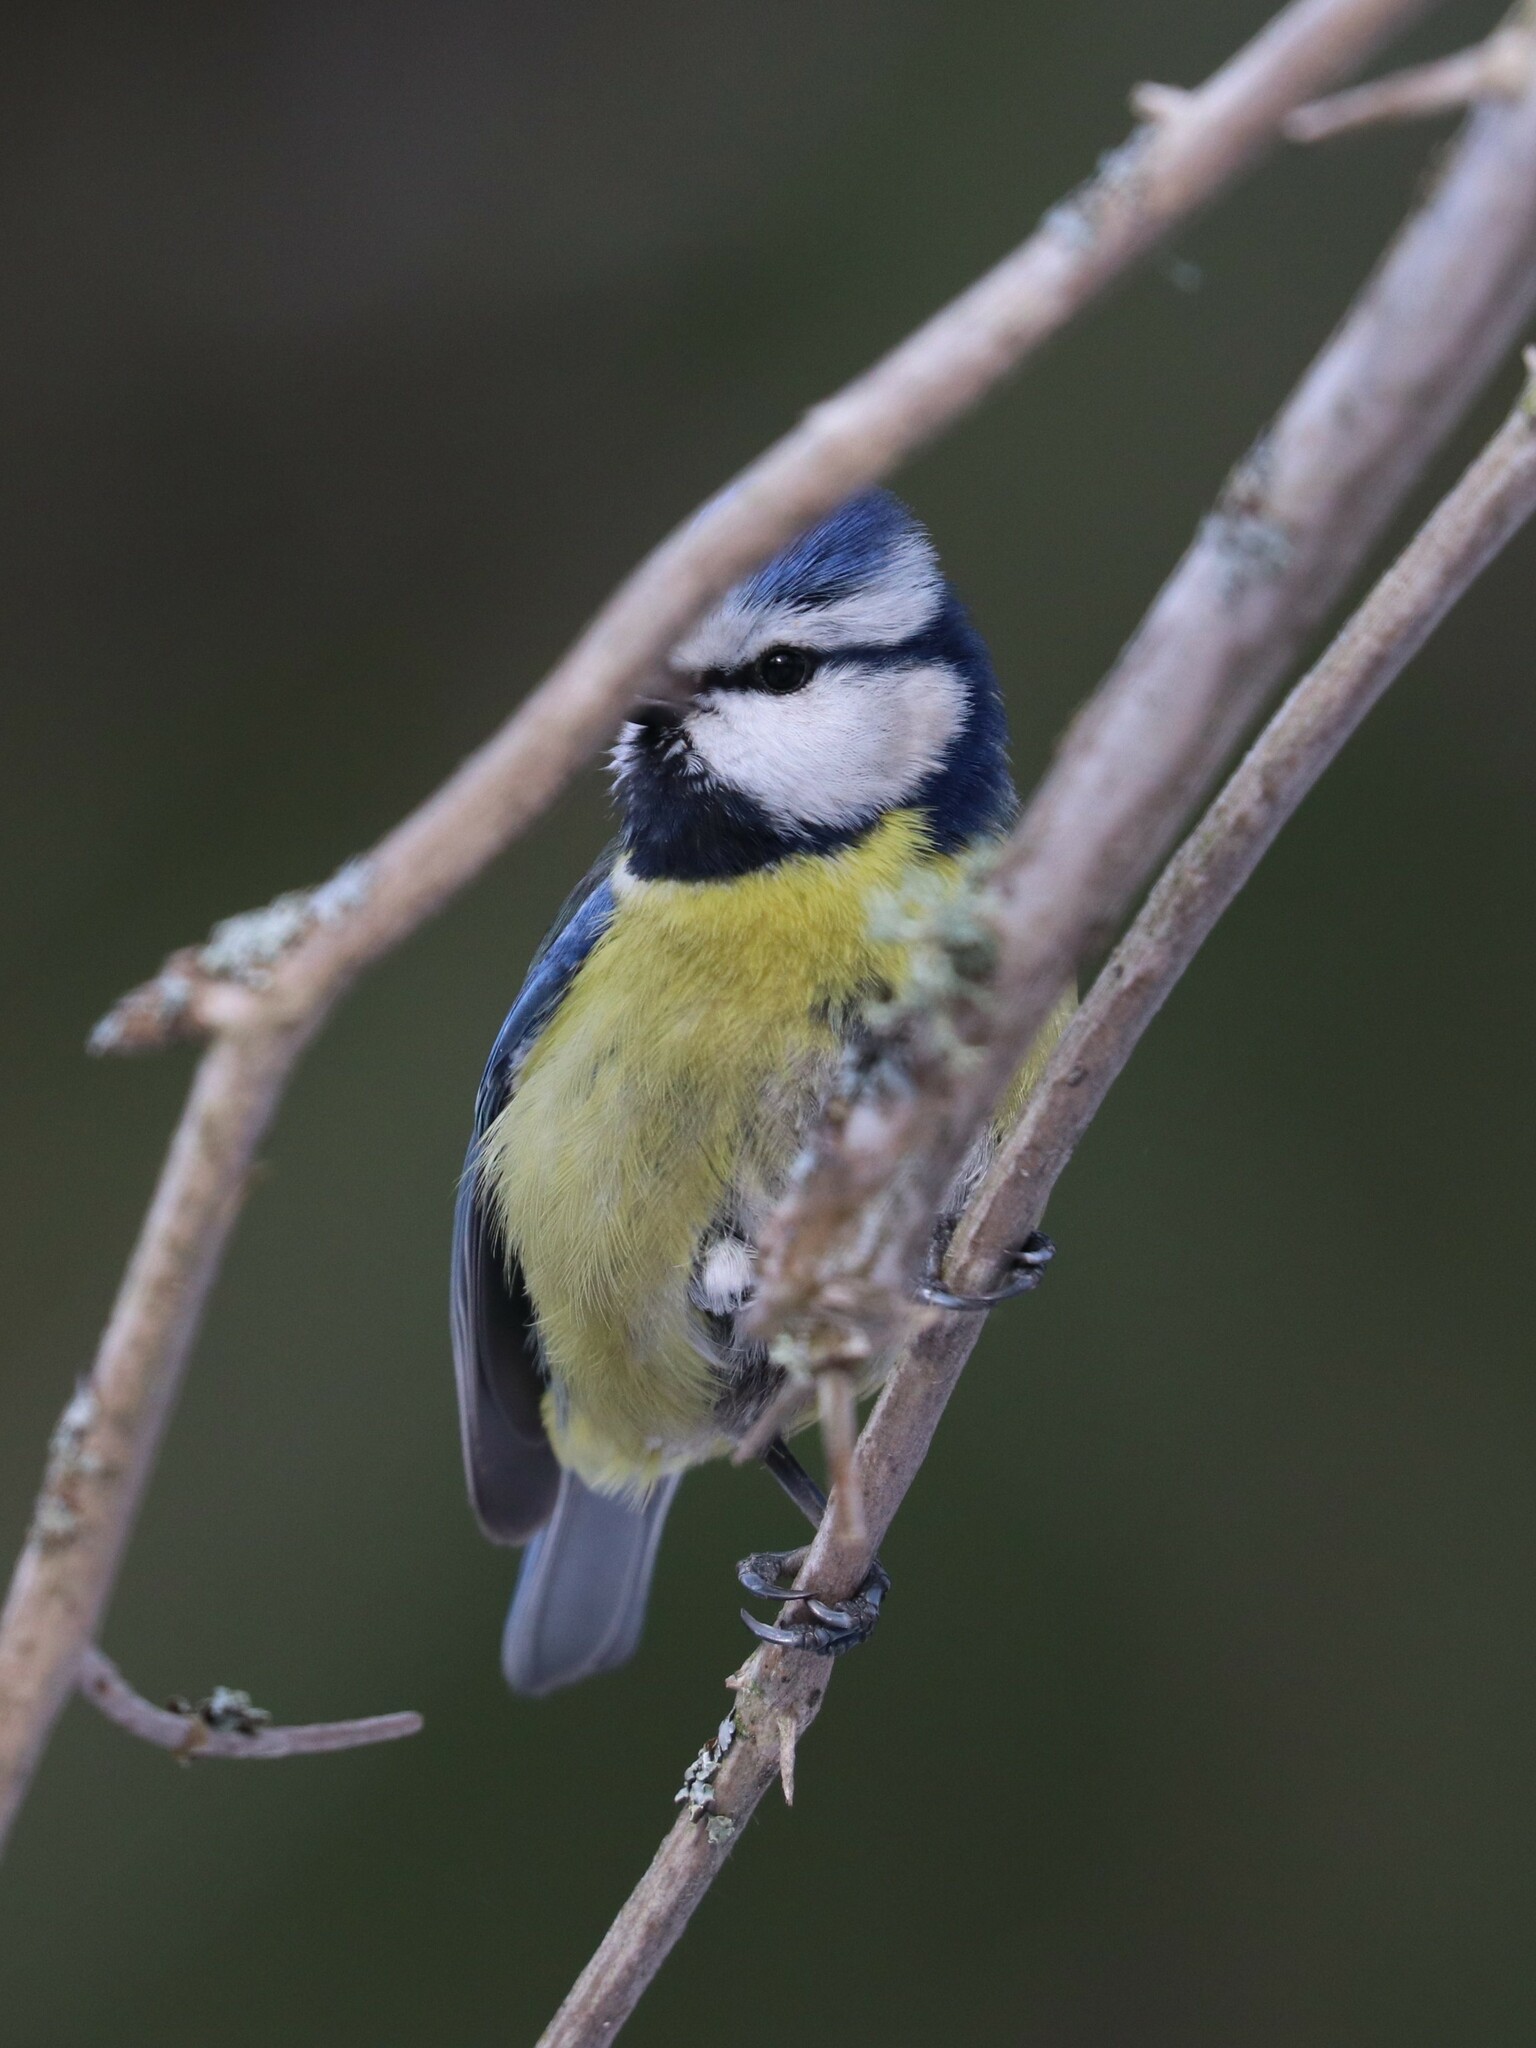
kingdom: Animalia
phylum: Chordata
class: Aves
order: Passeriformes
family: Paridae
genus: Cyanistes
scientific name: Cyanistes caeruleus
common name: Eurasian blue tit
